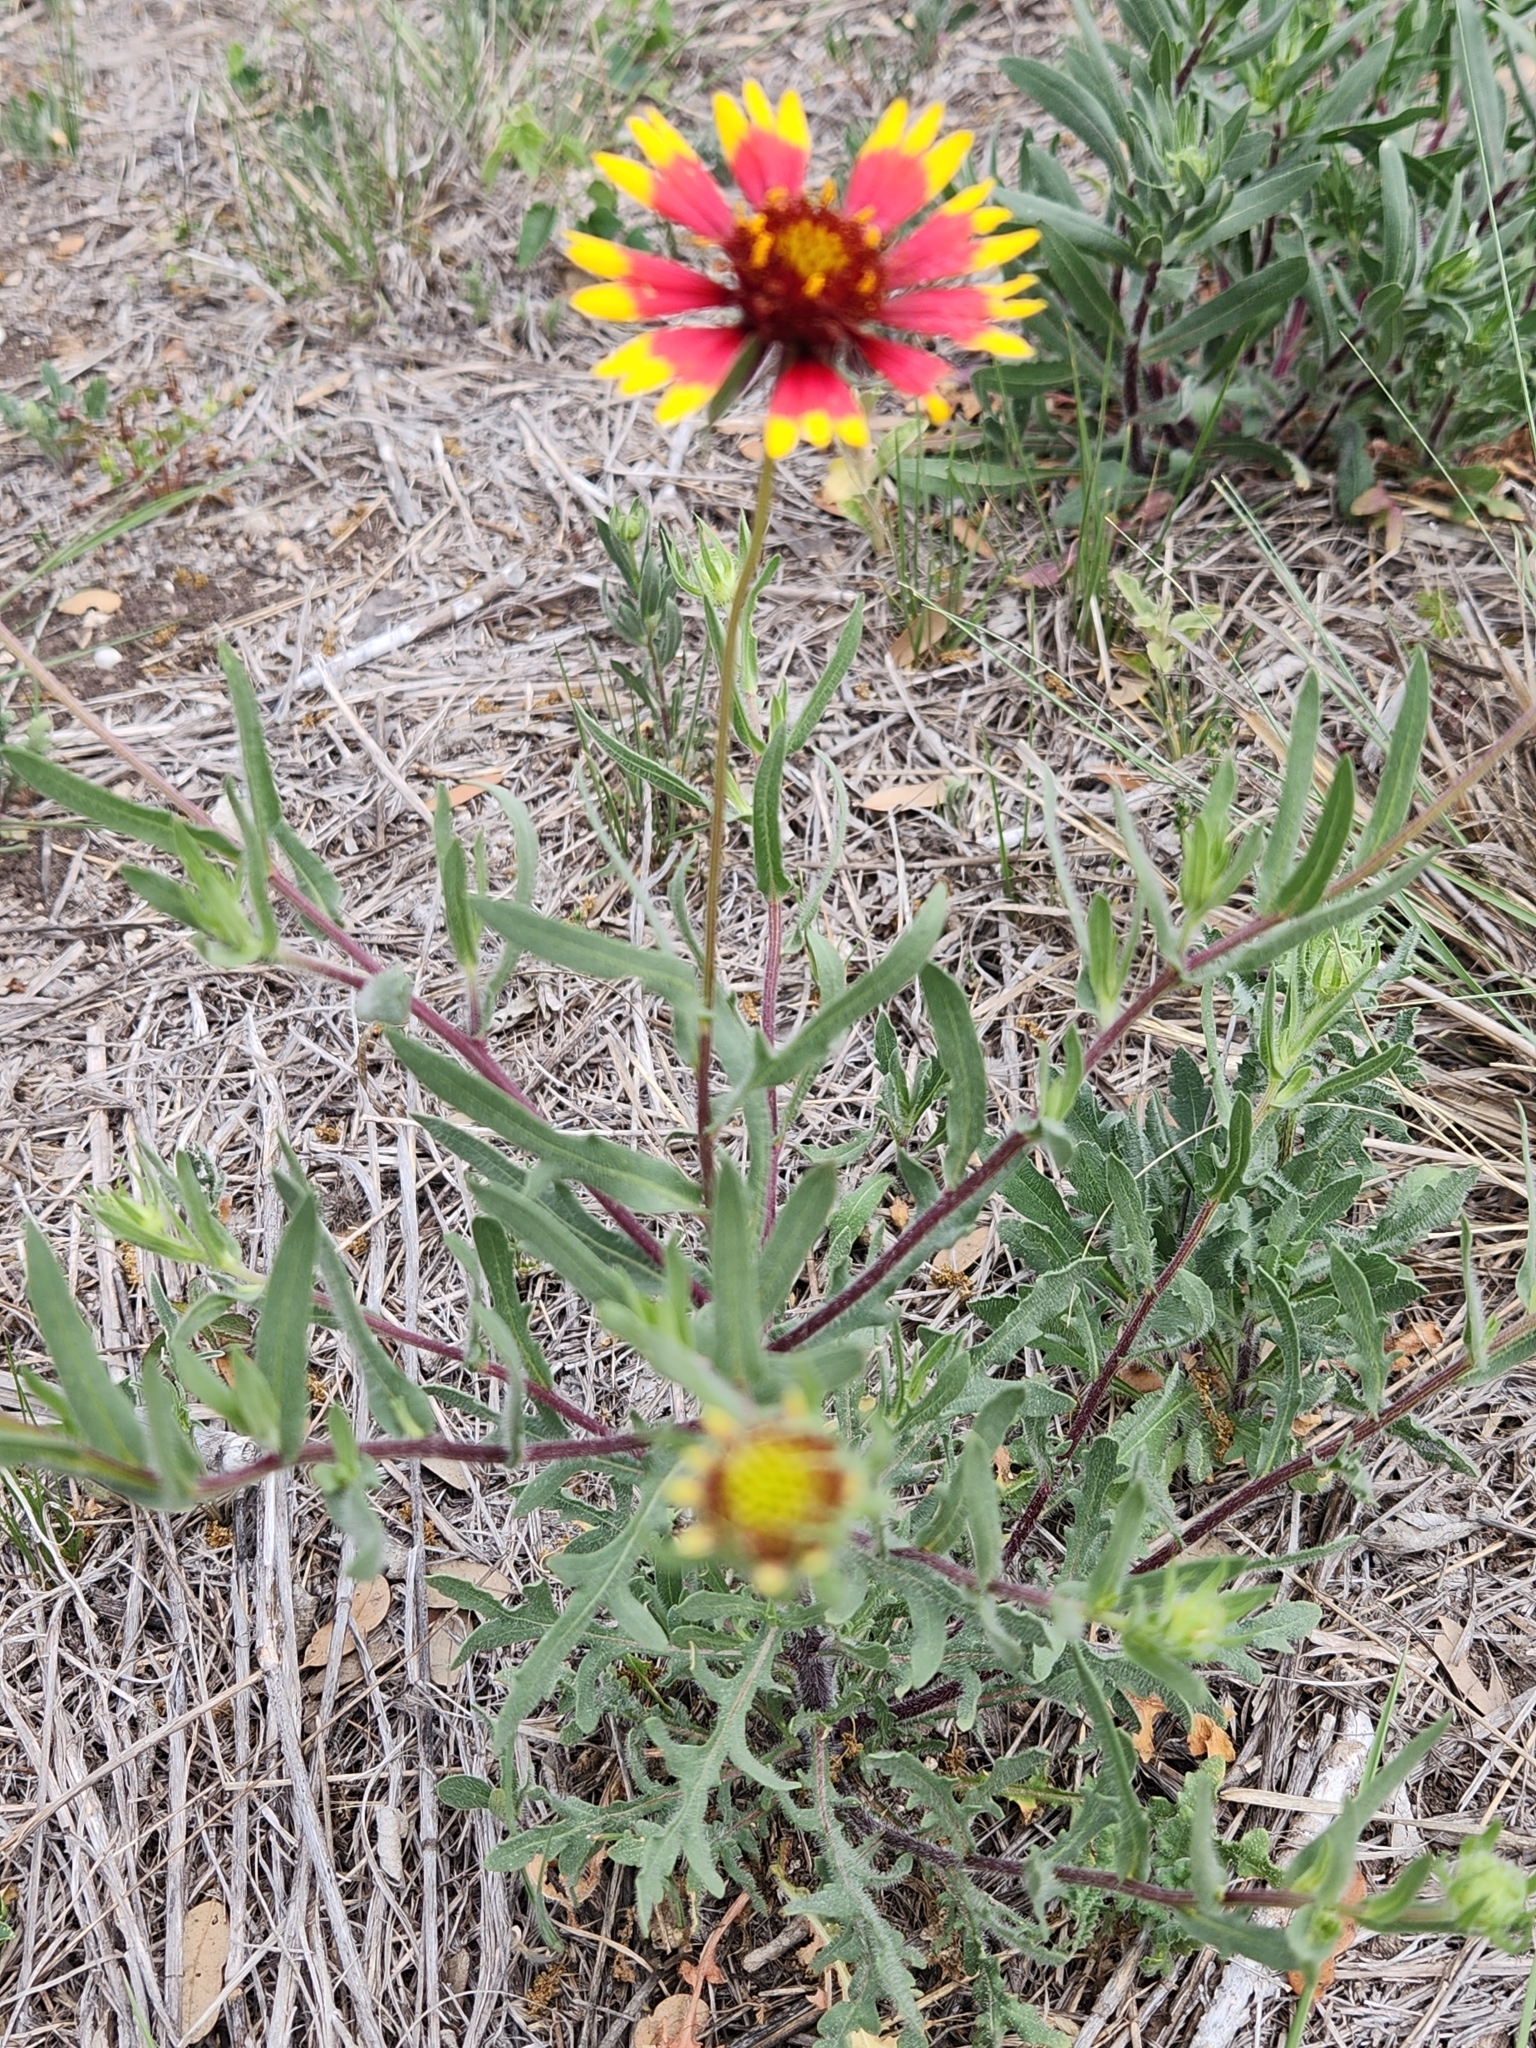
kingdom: Plantae
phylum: Tracheophyta
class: Magnoliopsida
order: Asterales
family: Asteraceae
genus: Gaillardia
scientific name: Gaillardia pulchella
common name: Firewheel
